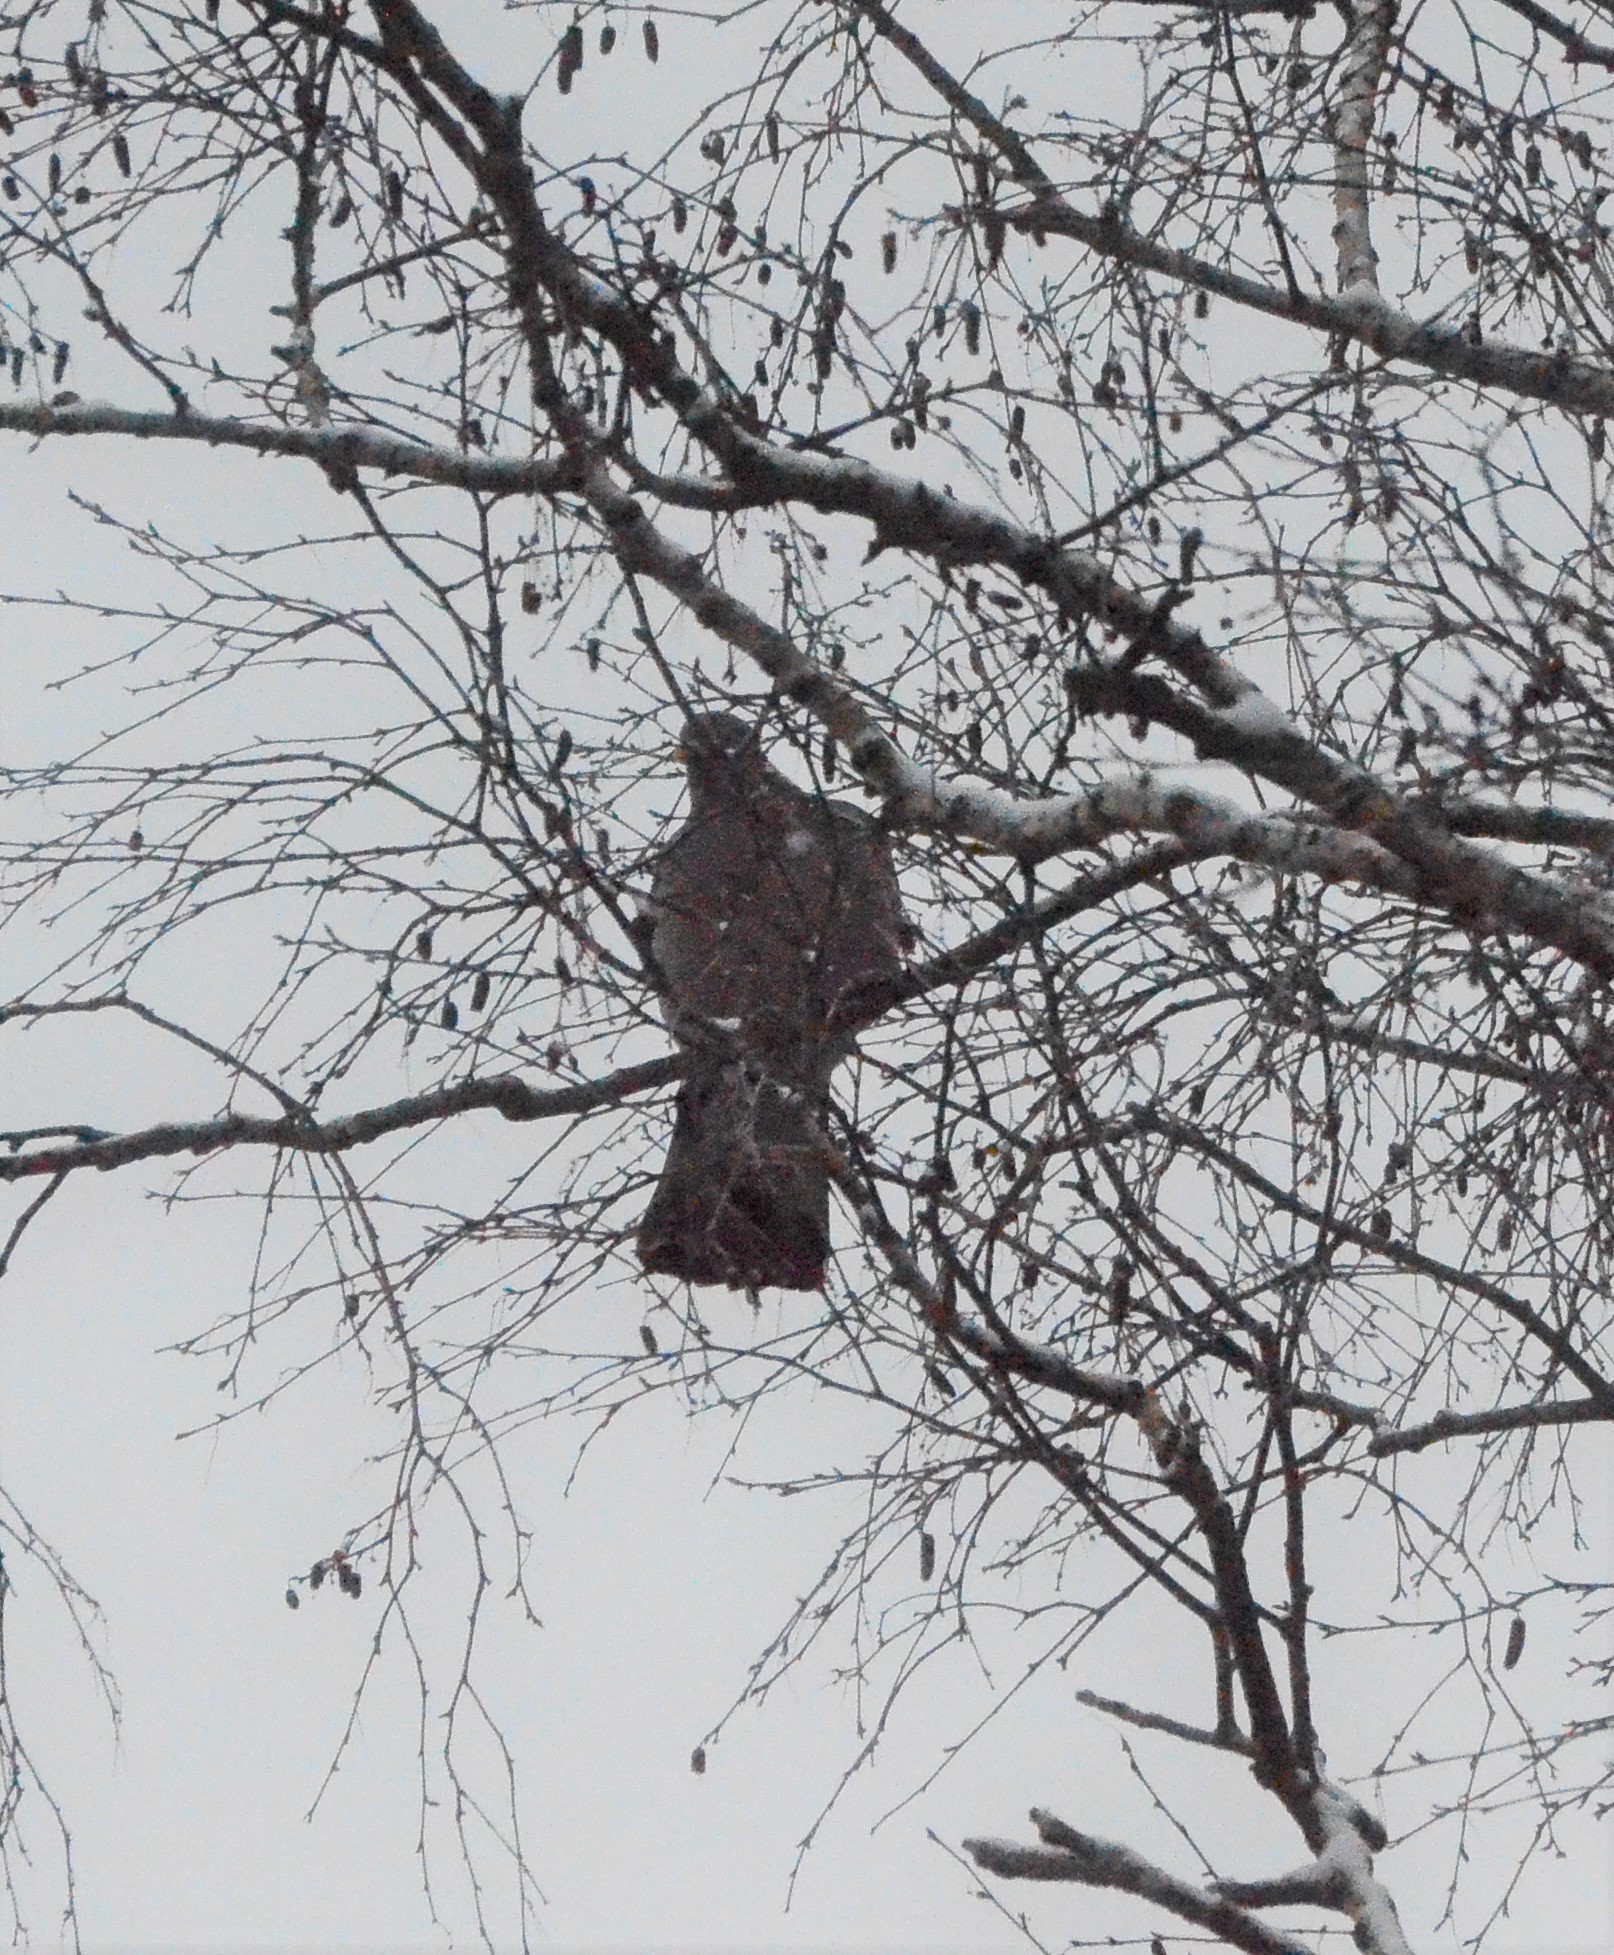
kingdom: Animalia
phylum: Chordata
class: Aves
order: Columbiformes
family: Columbidae
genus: Columba
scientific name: Columba palumbus
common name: Common wood pigeon
